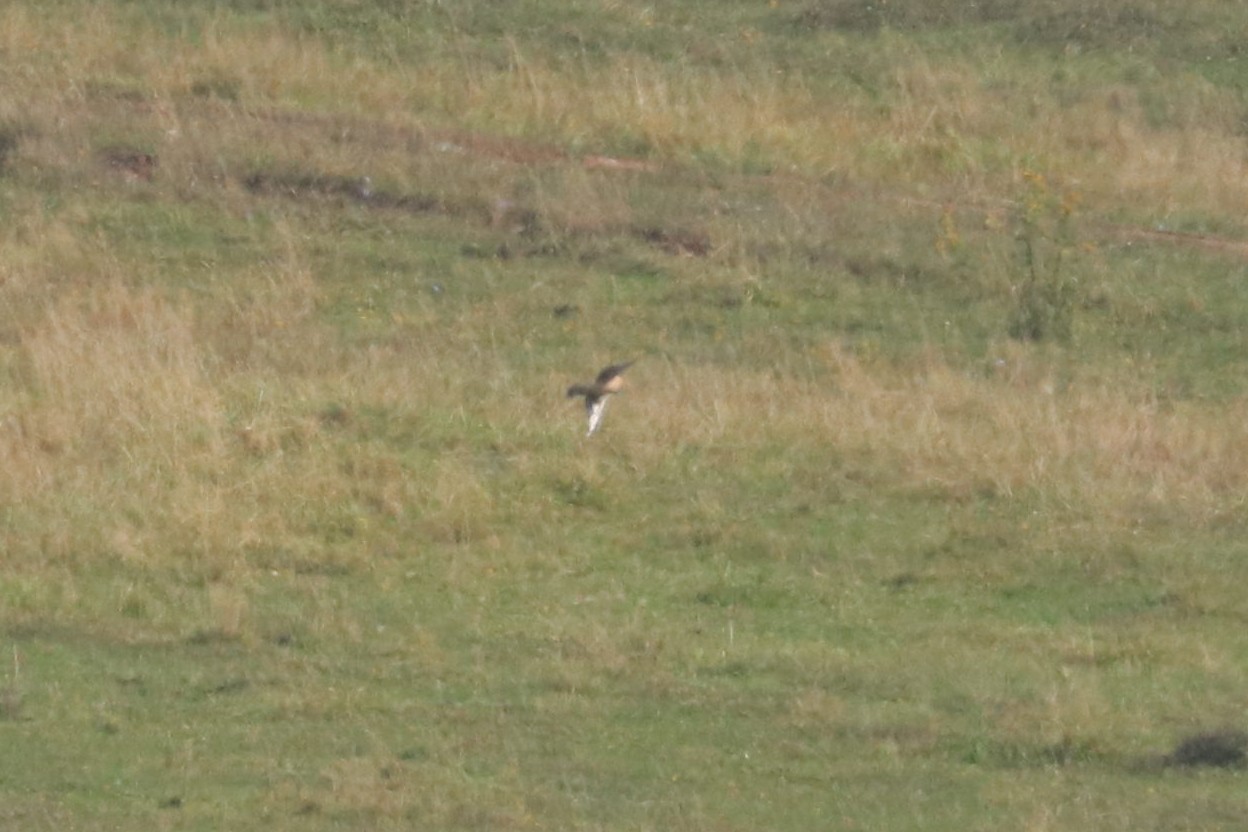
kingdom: Animalia
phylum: Chordata
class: Aves
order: Accipitriformes
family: Accipitridae
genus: Circus
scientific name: Circus cyaneus
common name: Hen harrier
